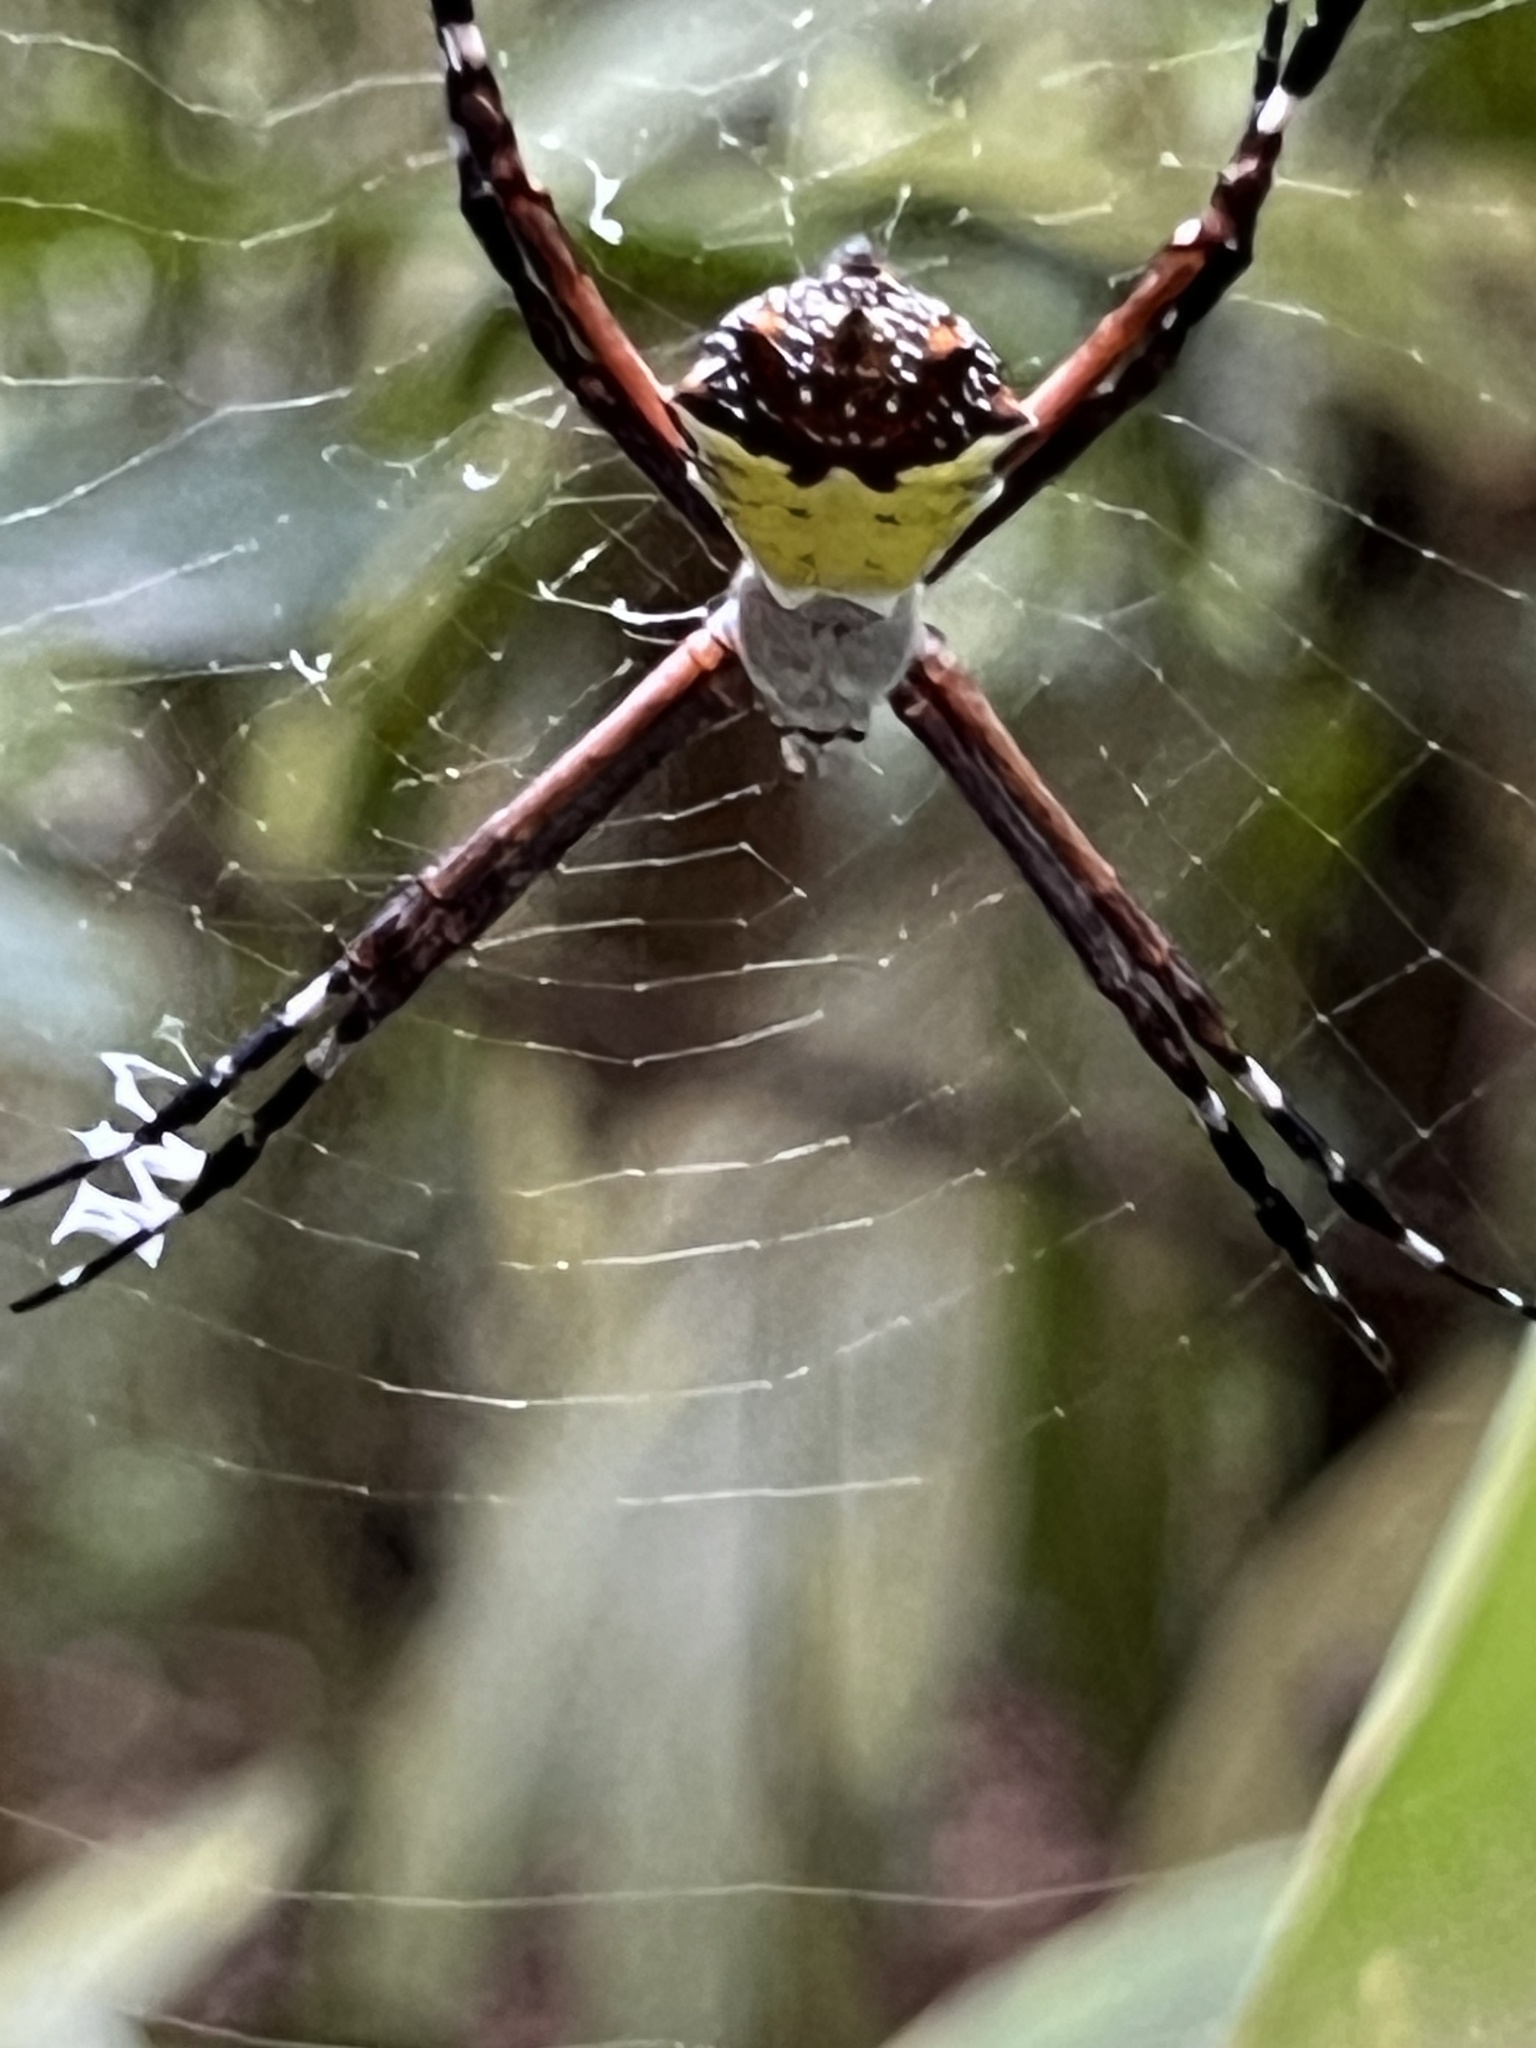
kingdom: Animalia
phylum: Arthropoda
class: Arachnida
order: Araneae
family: Araneidae
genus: Argiope
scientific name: Argiope submaronica
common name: Orb weavers
